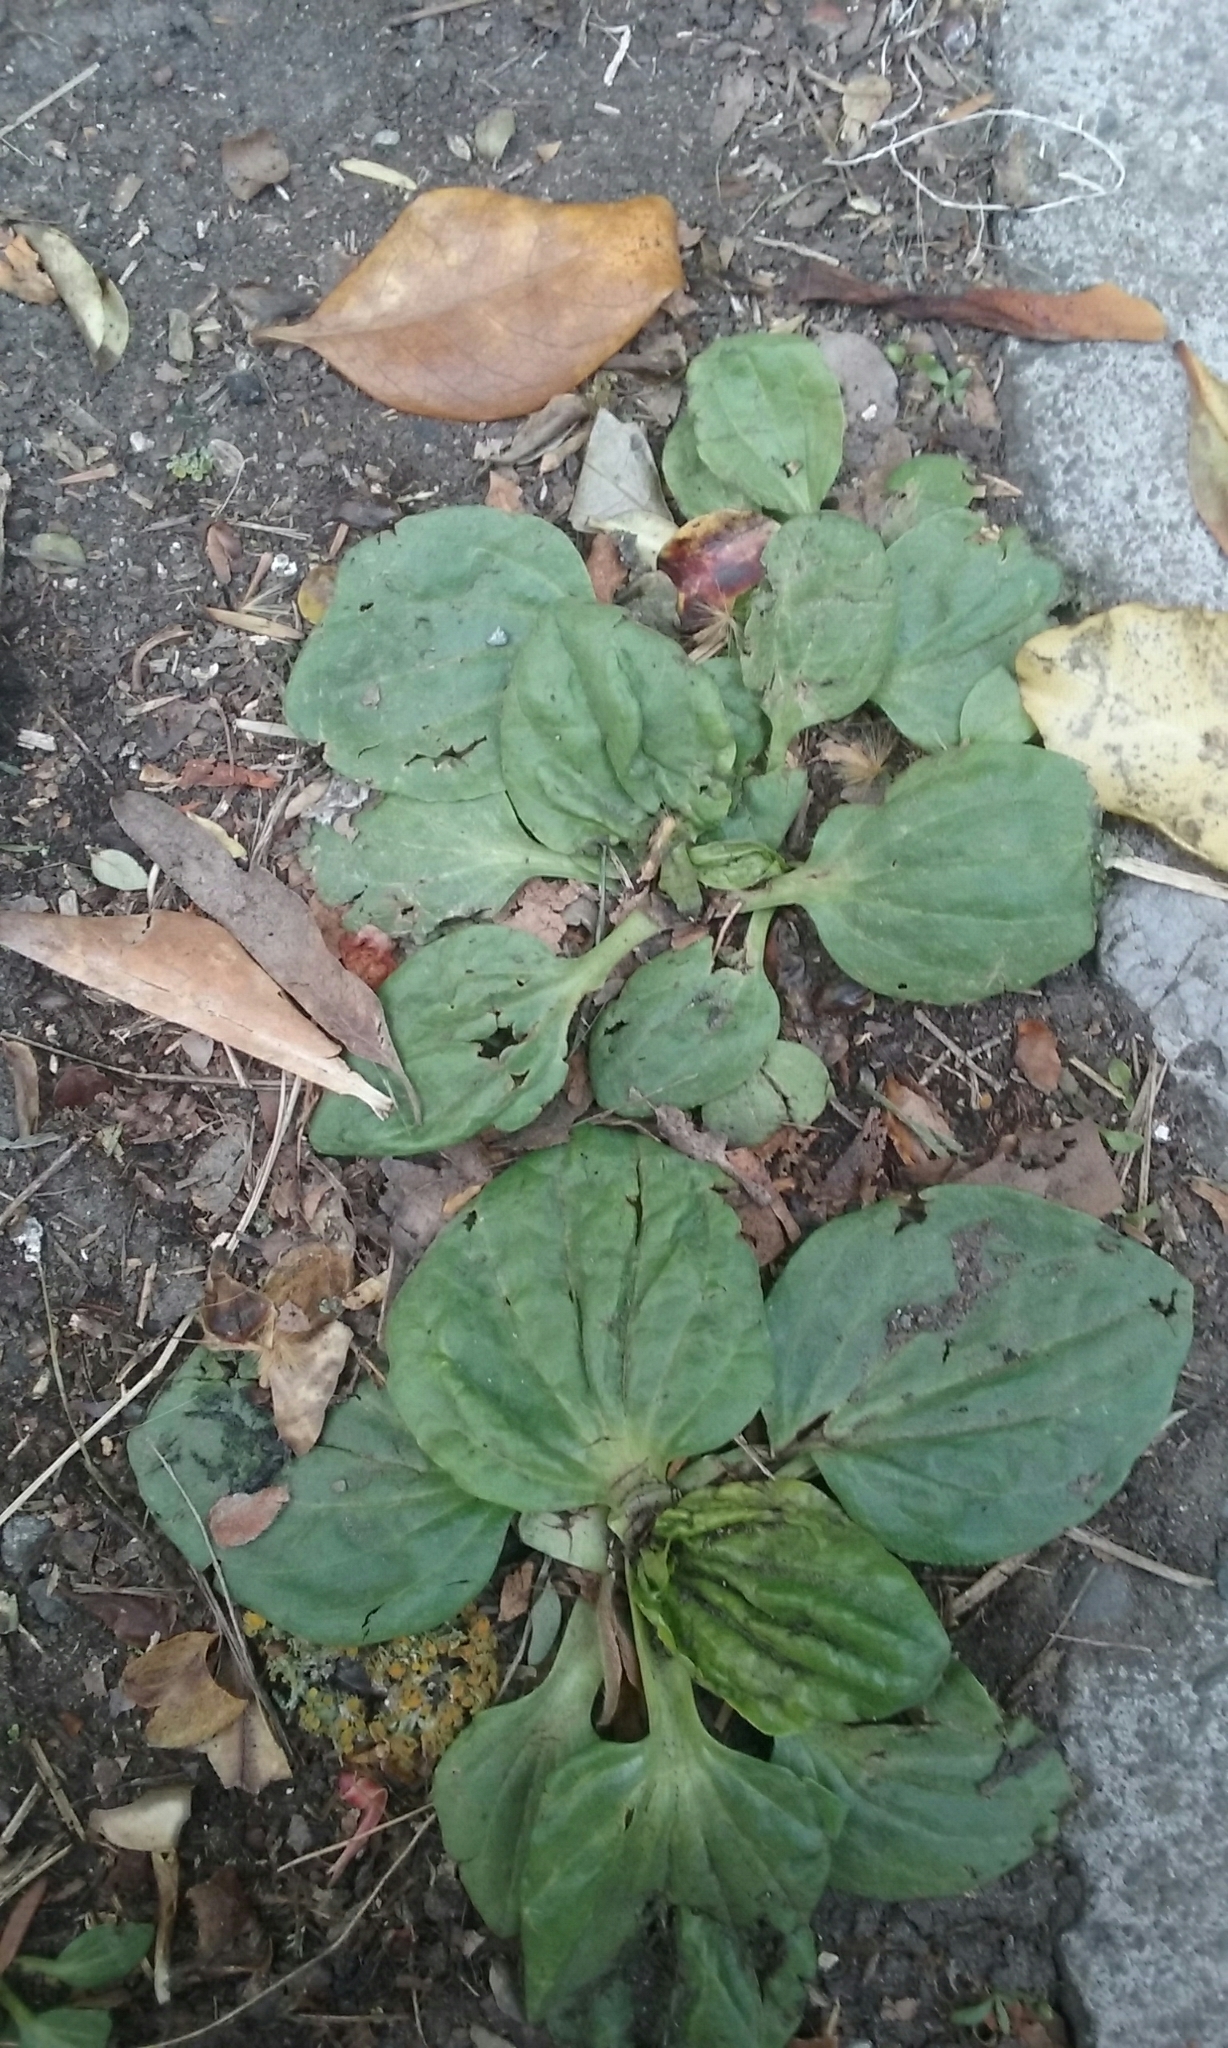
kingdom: Plantae
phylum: Tracheophyta
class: Magnoliopsida
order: Lamiales
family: Plantaginaceae
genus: Plantago
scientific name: Plantago major
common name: Common plantain
